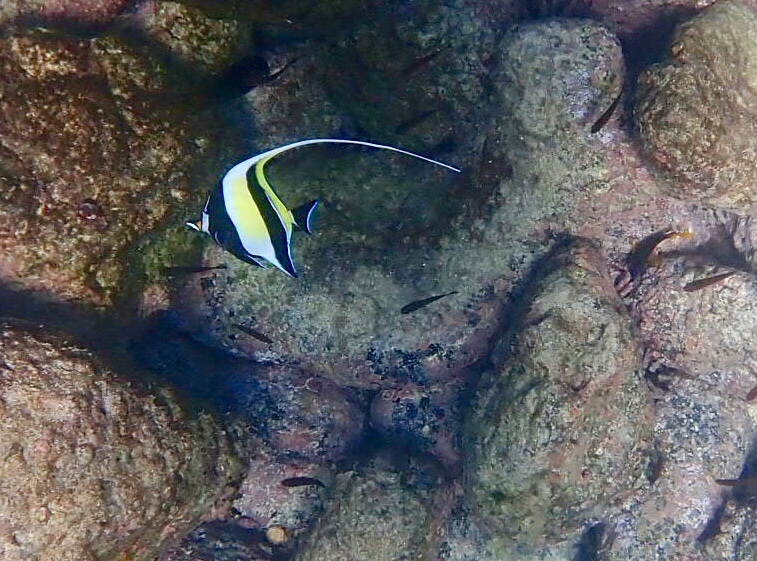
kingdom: Animalia
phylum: Chordata
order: Perciformes
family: Zanclidae
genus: Zanclus
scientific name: Zanclus cornutus
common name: Moorish idol
